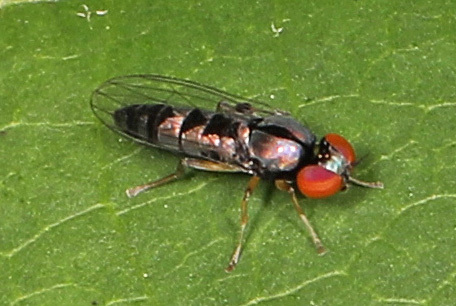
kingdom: Animalia
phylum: Arthropoda
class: Insecta
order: Diptera
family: Platypezidae
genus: Bertamyia
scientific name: Bertamyia notata
